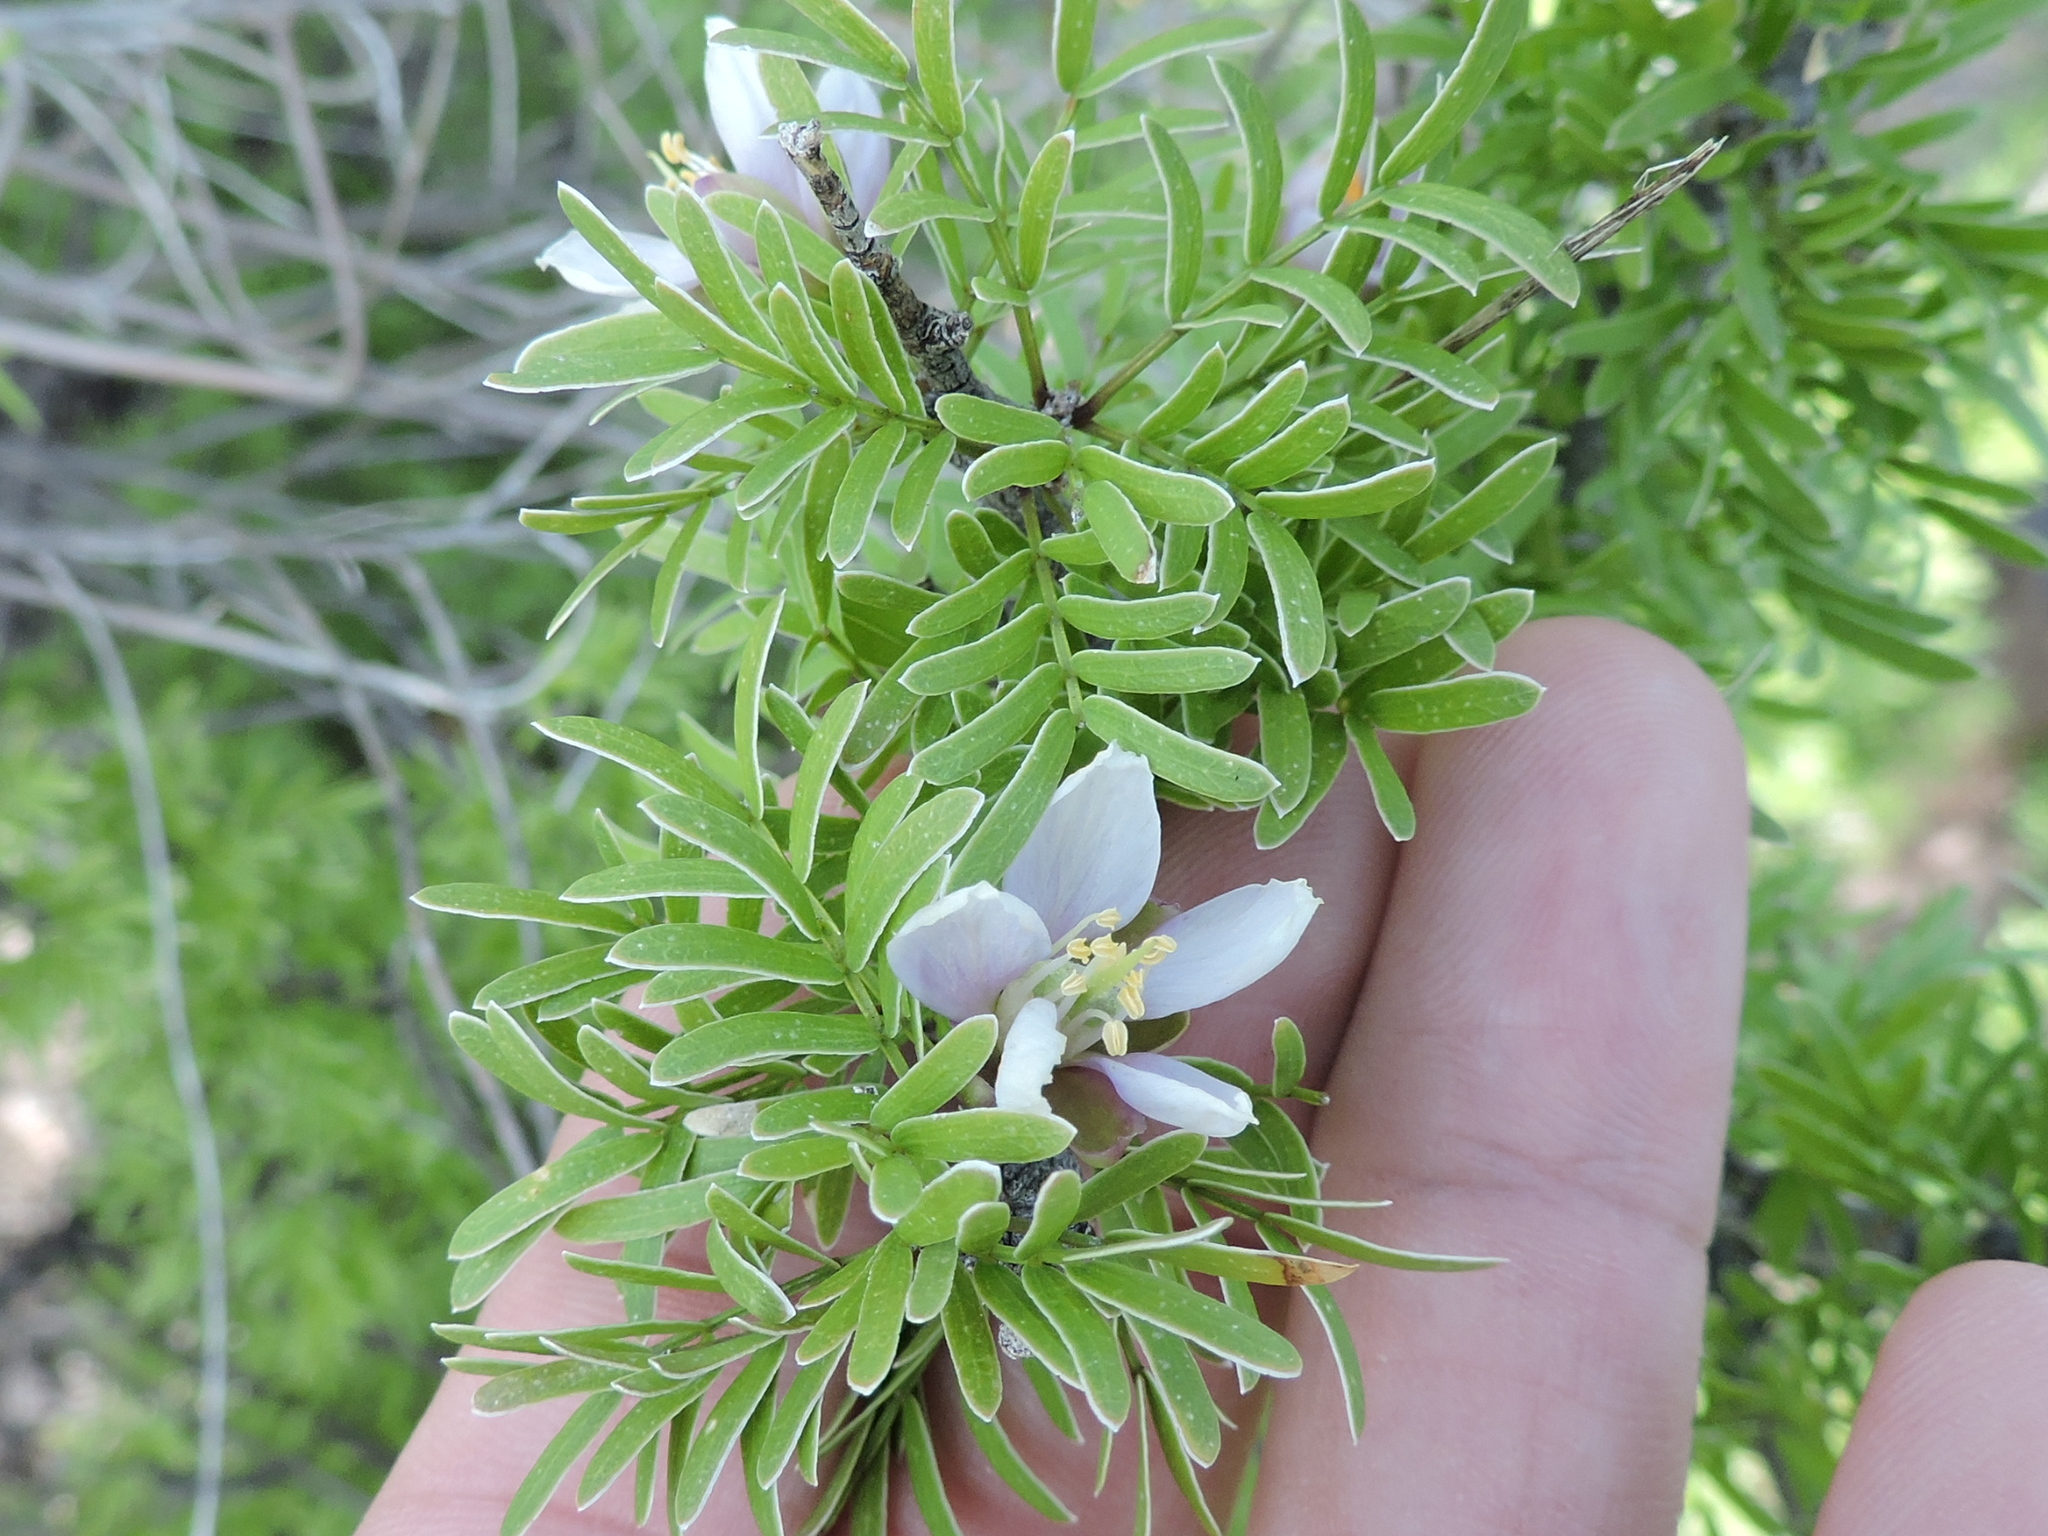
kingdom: Plantae
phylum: Tracheophyta
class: Magnoliopsida
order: Zygophyllales
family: Zygophyllaceae
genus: Porlieria
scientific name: Porlieria angustifolia
